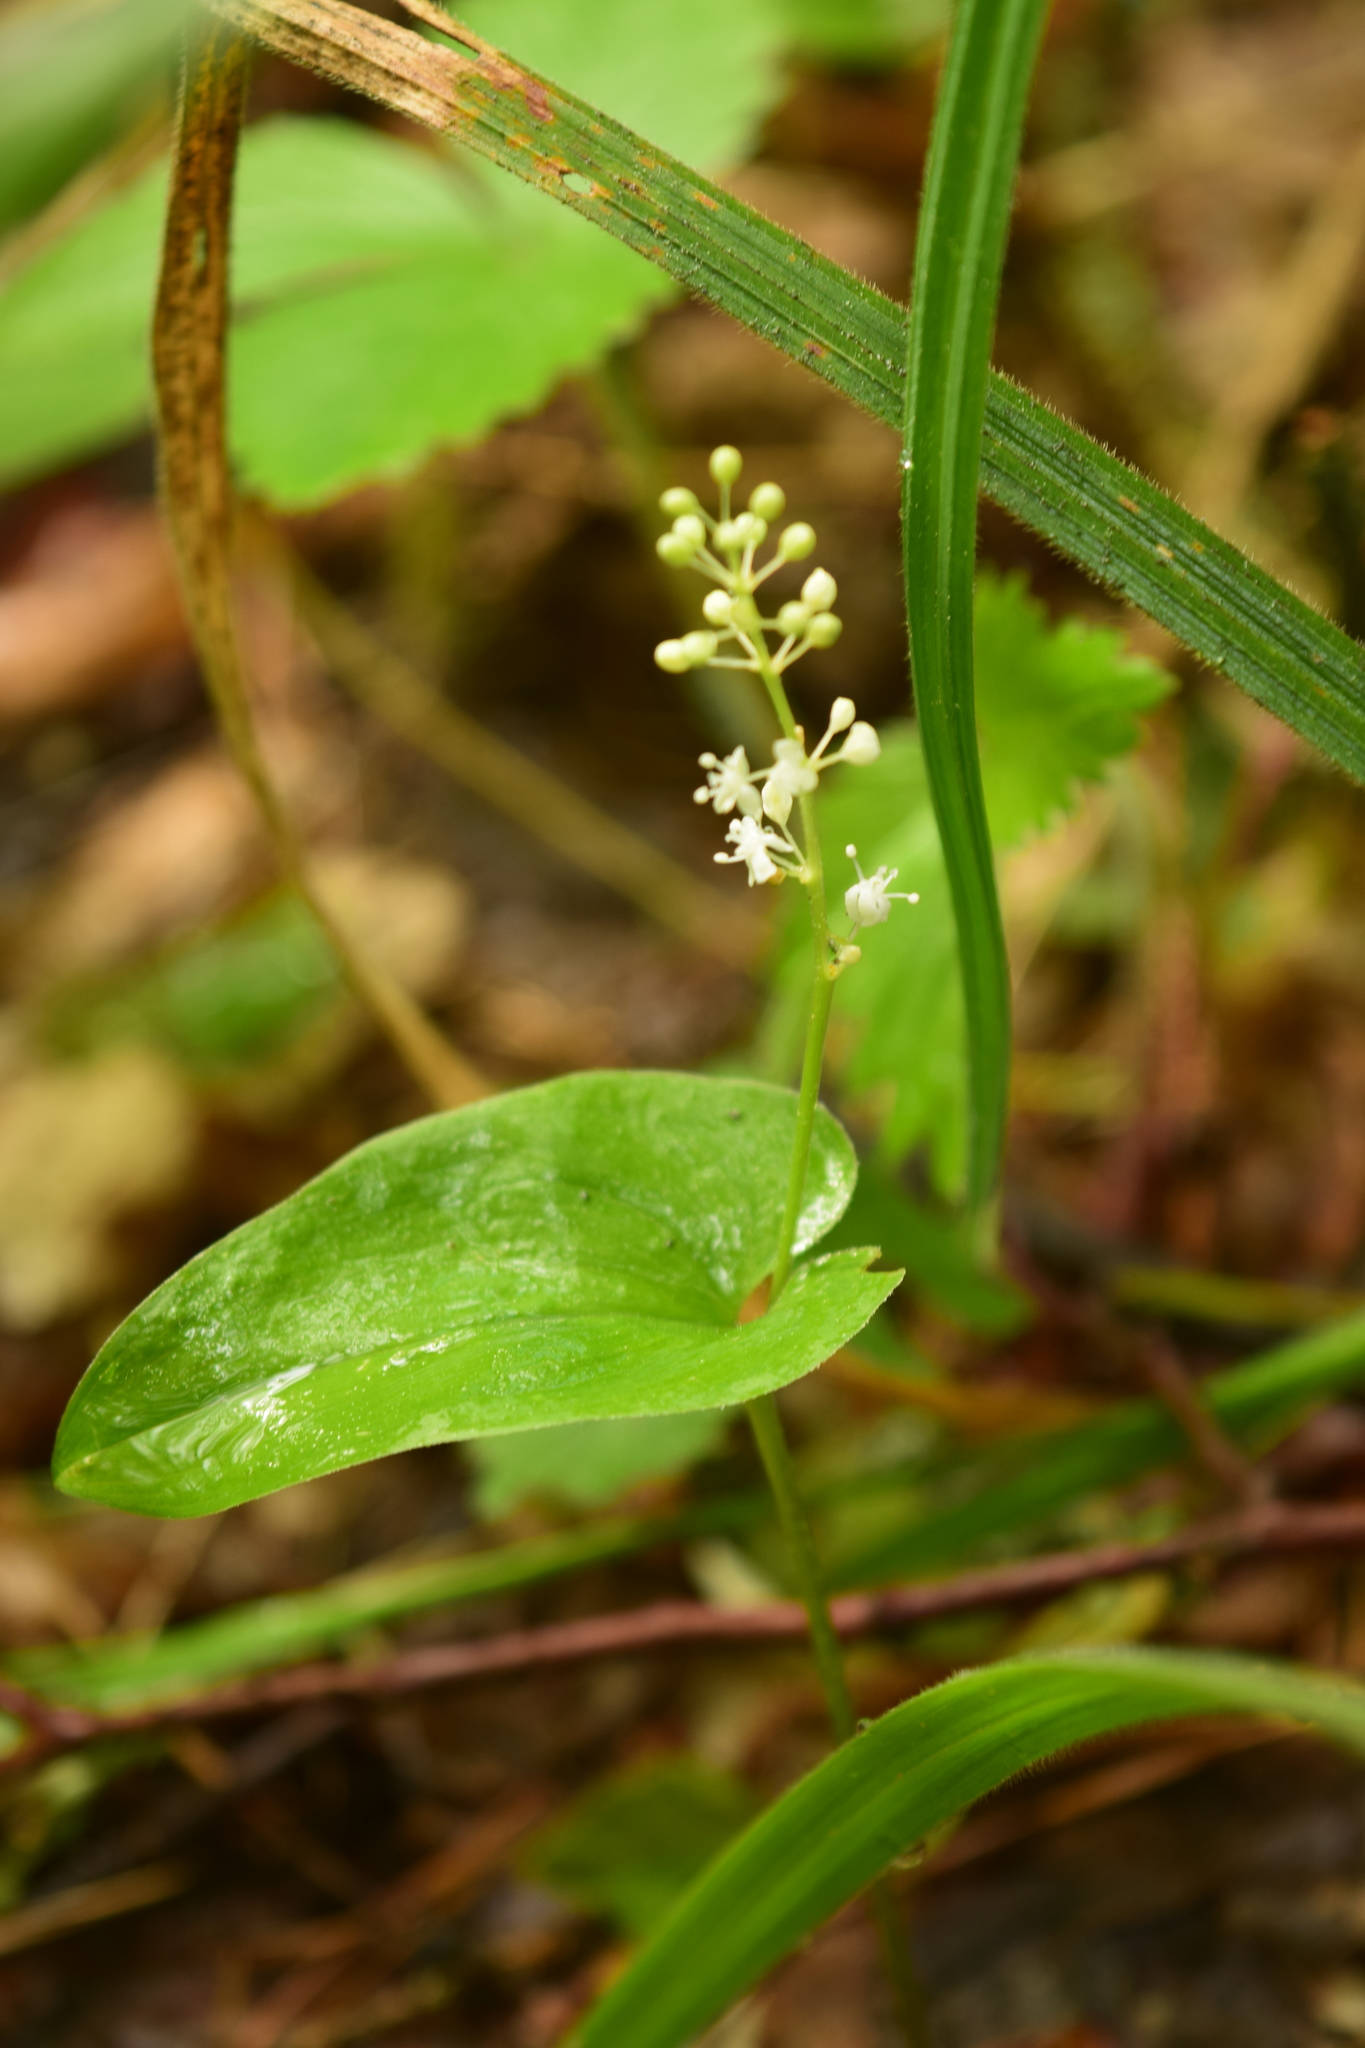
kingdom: Plantae
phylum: Tracheophyta
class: Liliopsida
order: Asparagales
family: Asparagaceae
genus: Maianthemum
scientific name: Maianthemum bifolium
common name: May lily
